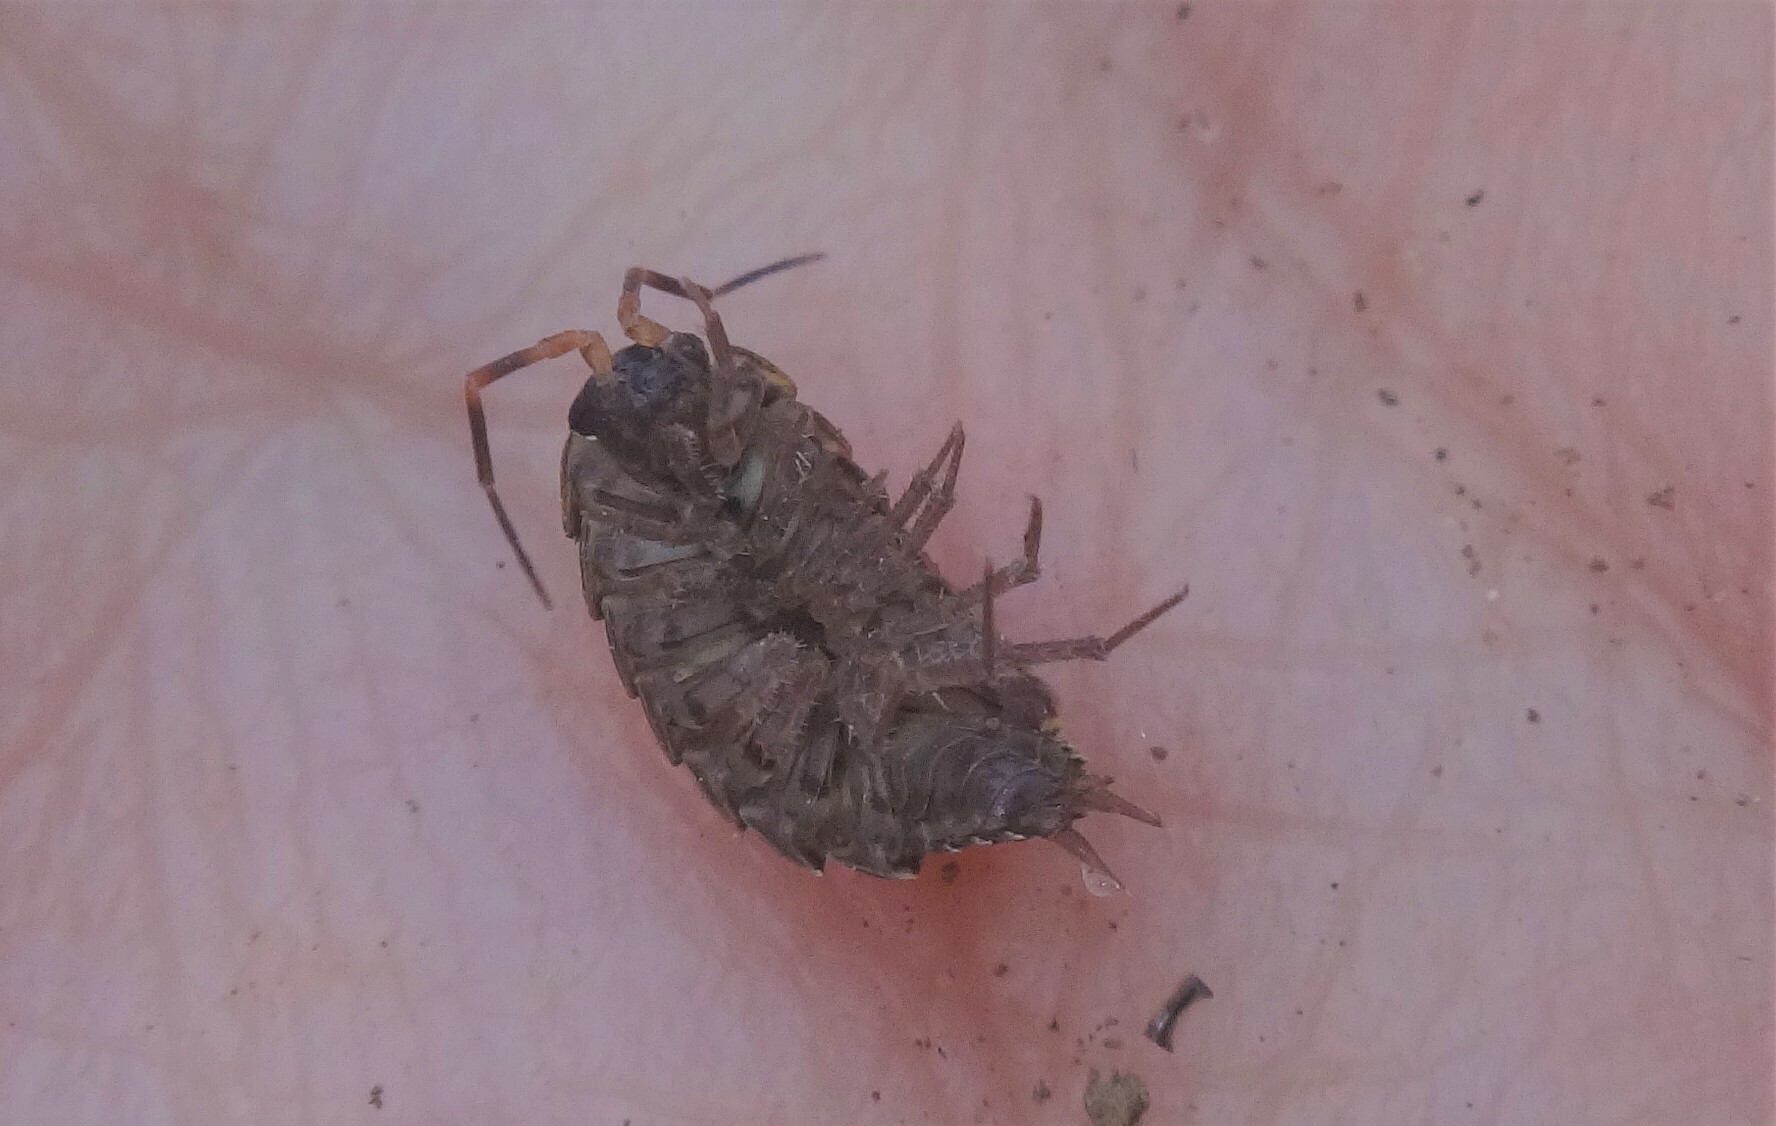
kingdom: Animalia
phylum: Arthropoda
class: Malacostraca
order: Isopoda
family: Philosciidae
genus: Philoscia
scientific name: Philoscia muscorum
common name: Common striped woodlouse
